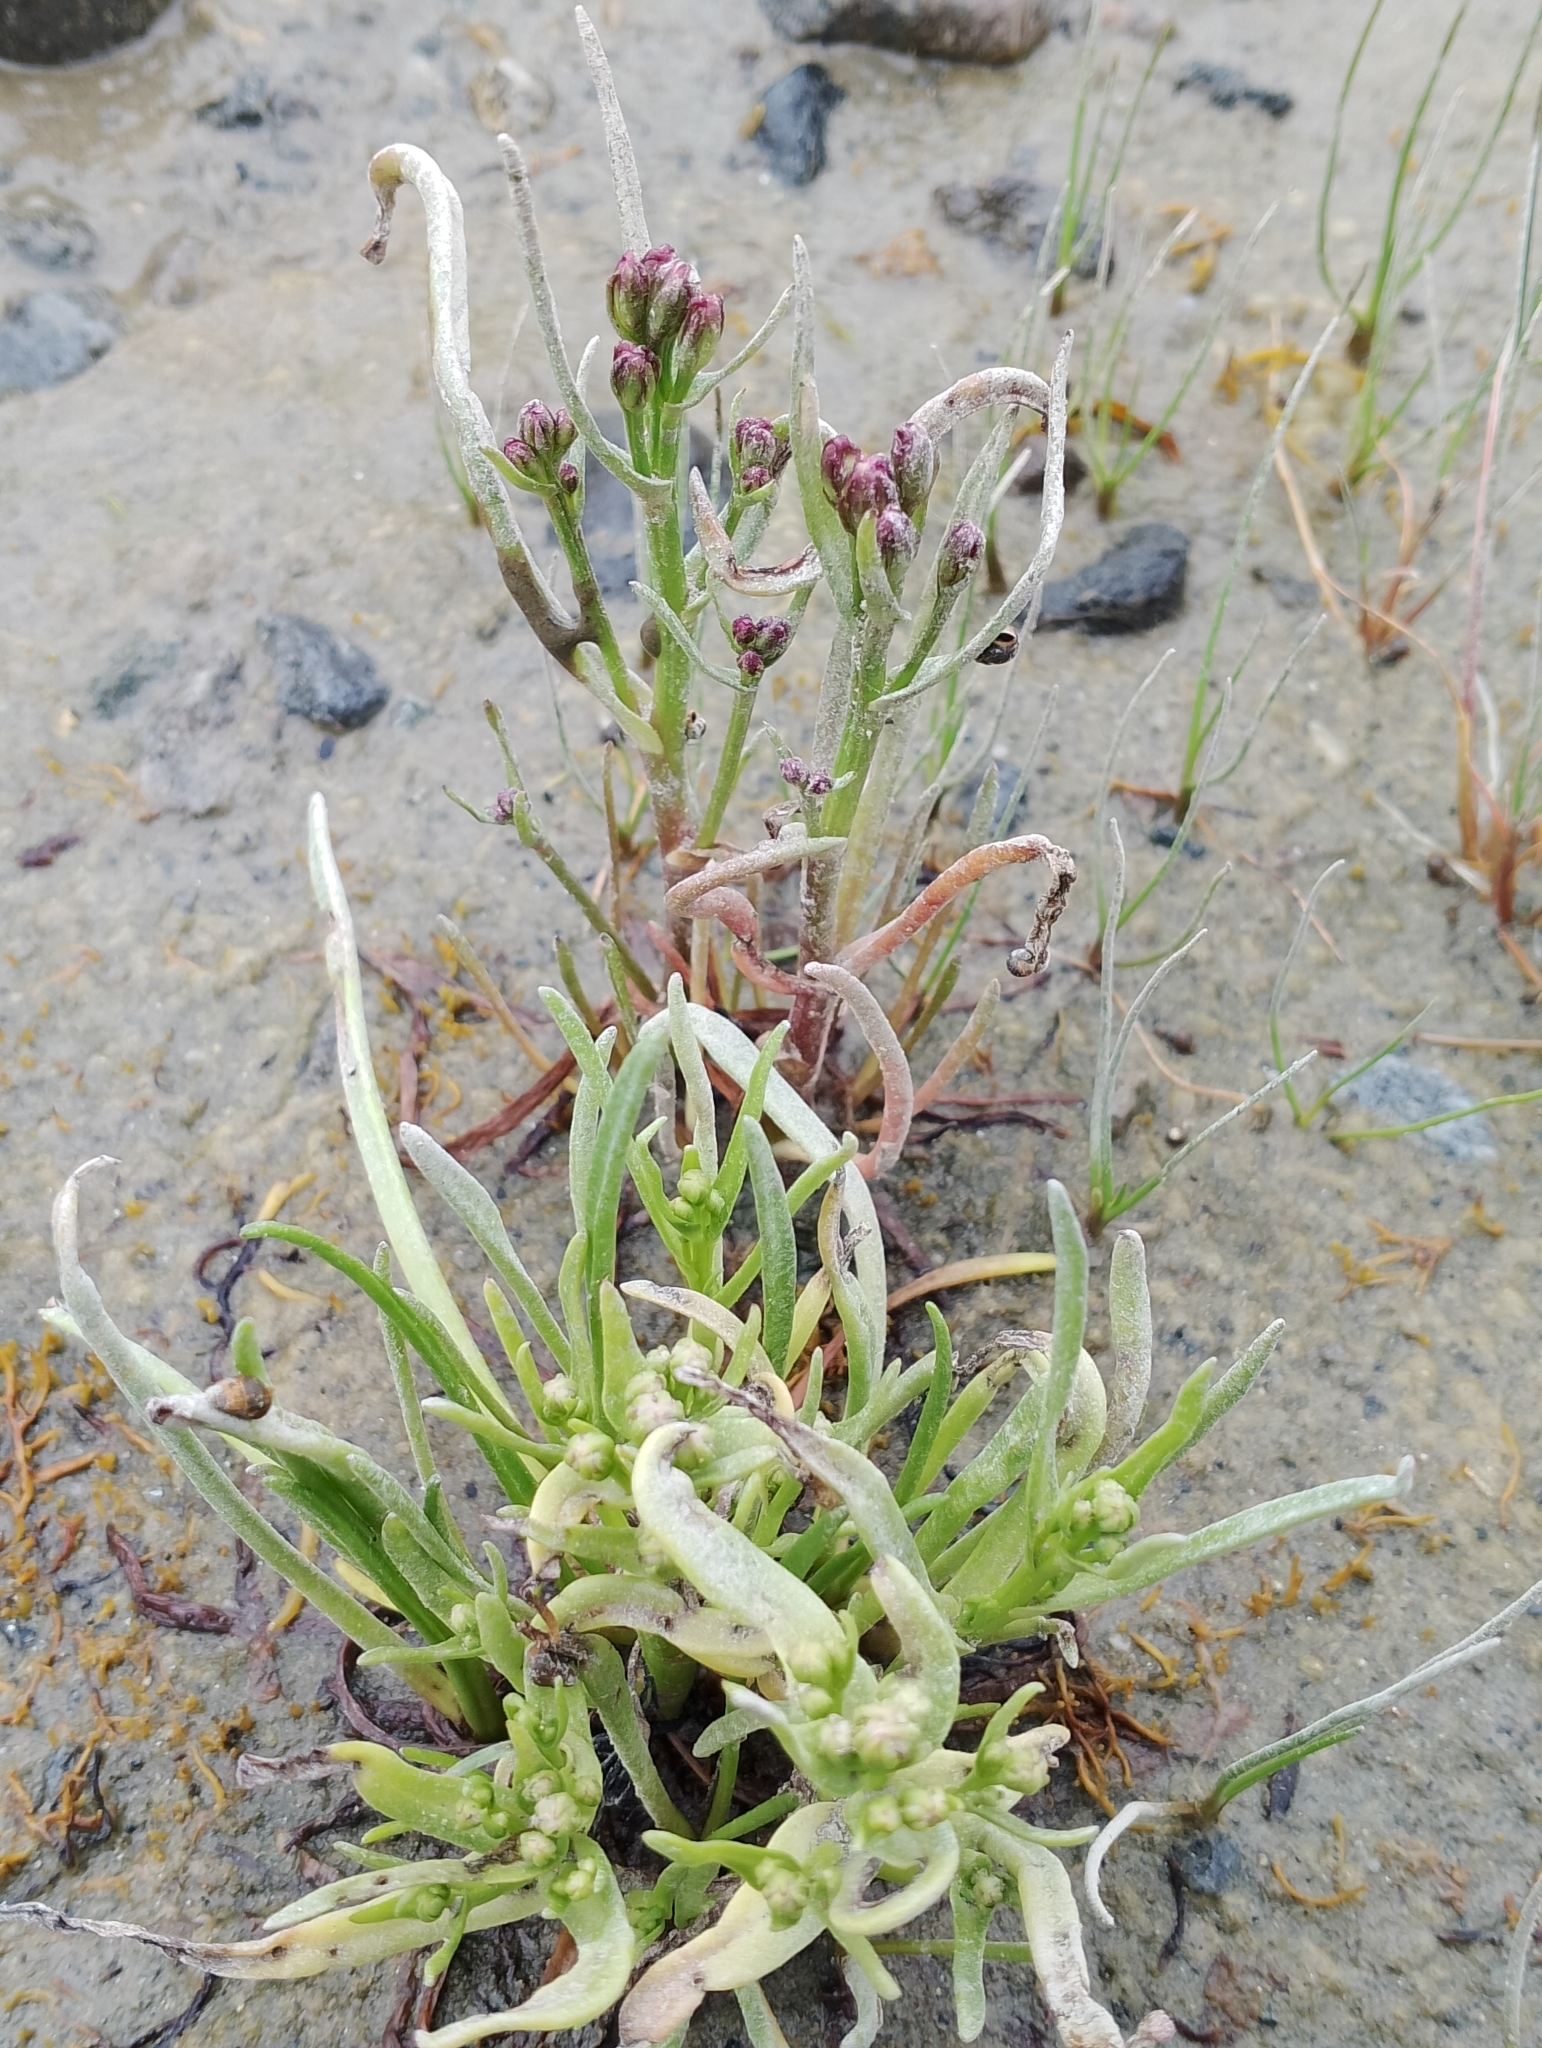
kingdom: Plantae
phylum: Tracheophyta
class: Magnoliopsida
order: Asterales
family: Asteraceae
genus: Tripolium
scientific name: Tripolium pannonicum
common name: Sea aster
